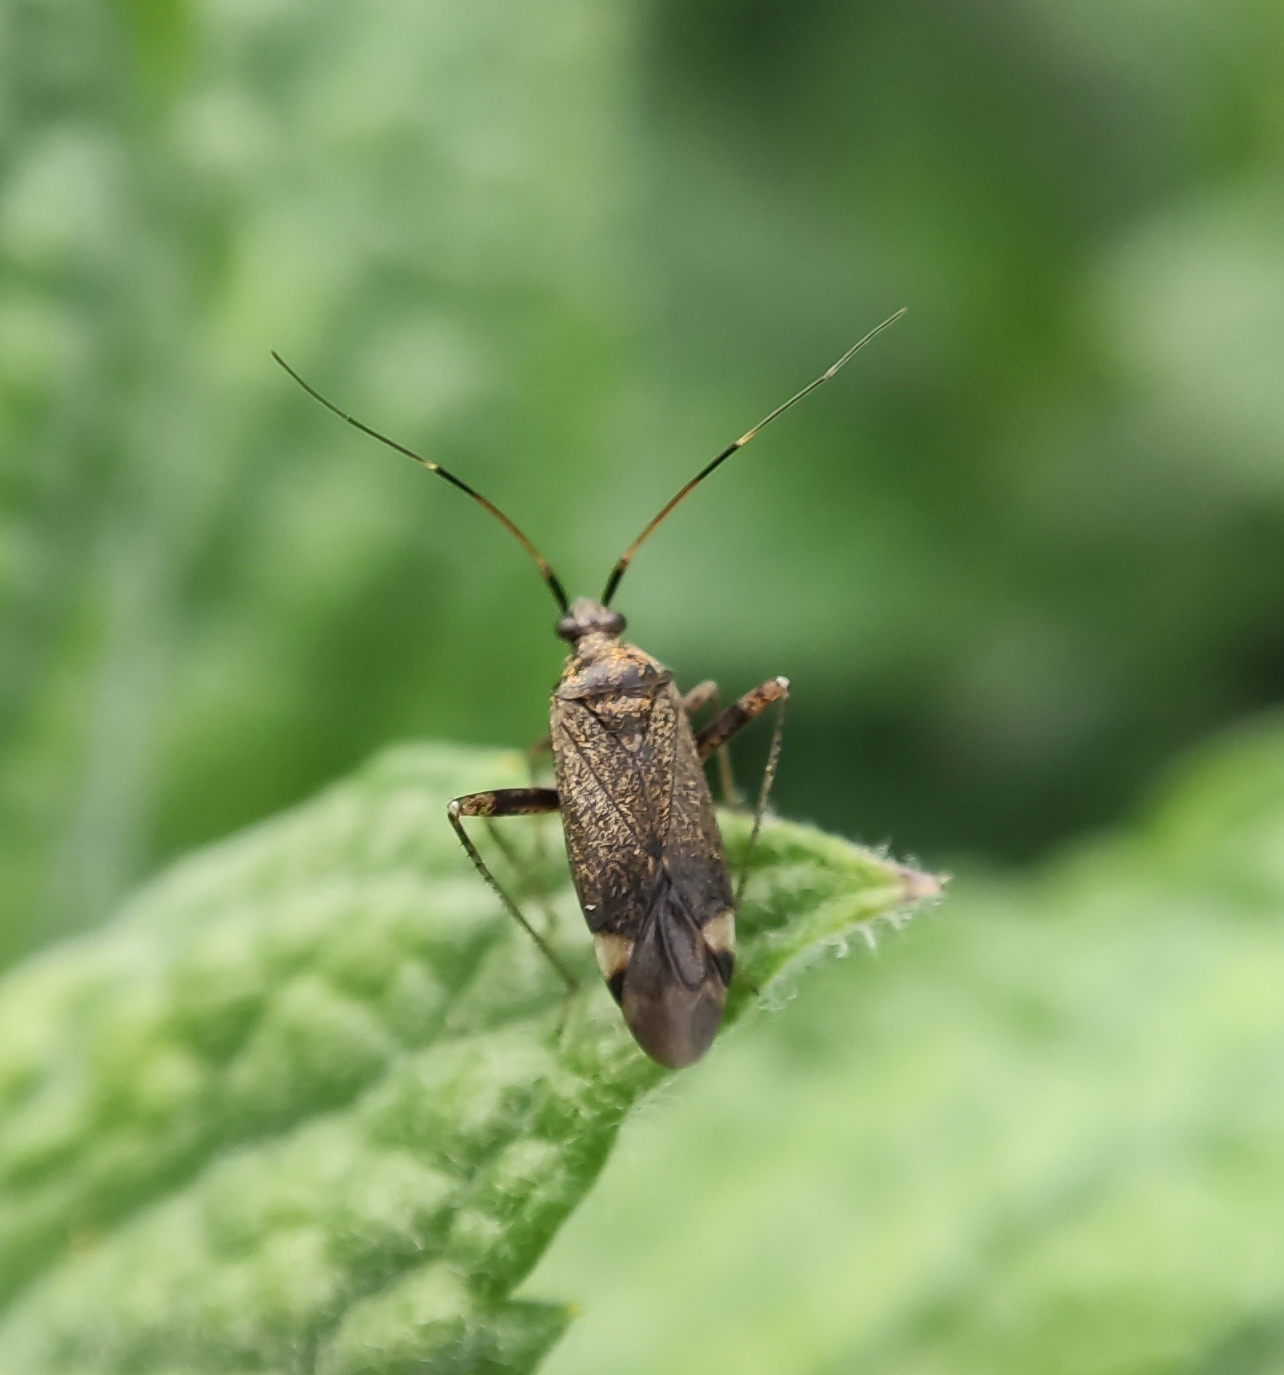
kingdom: Animalia
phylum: Arthropoda
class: Insecta
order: Hemiptera
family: Miridae
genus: Closterotomus
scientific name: Closterotomus fulvomaculatus
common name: Spotted plant bug
